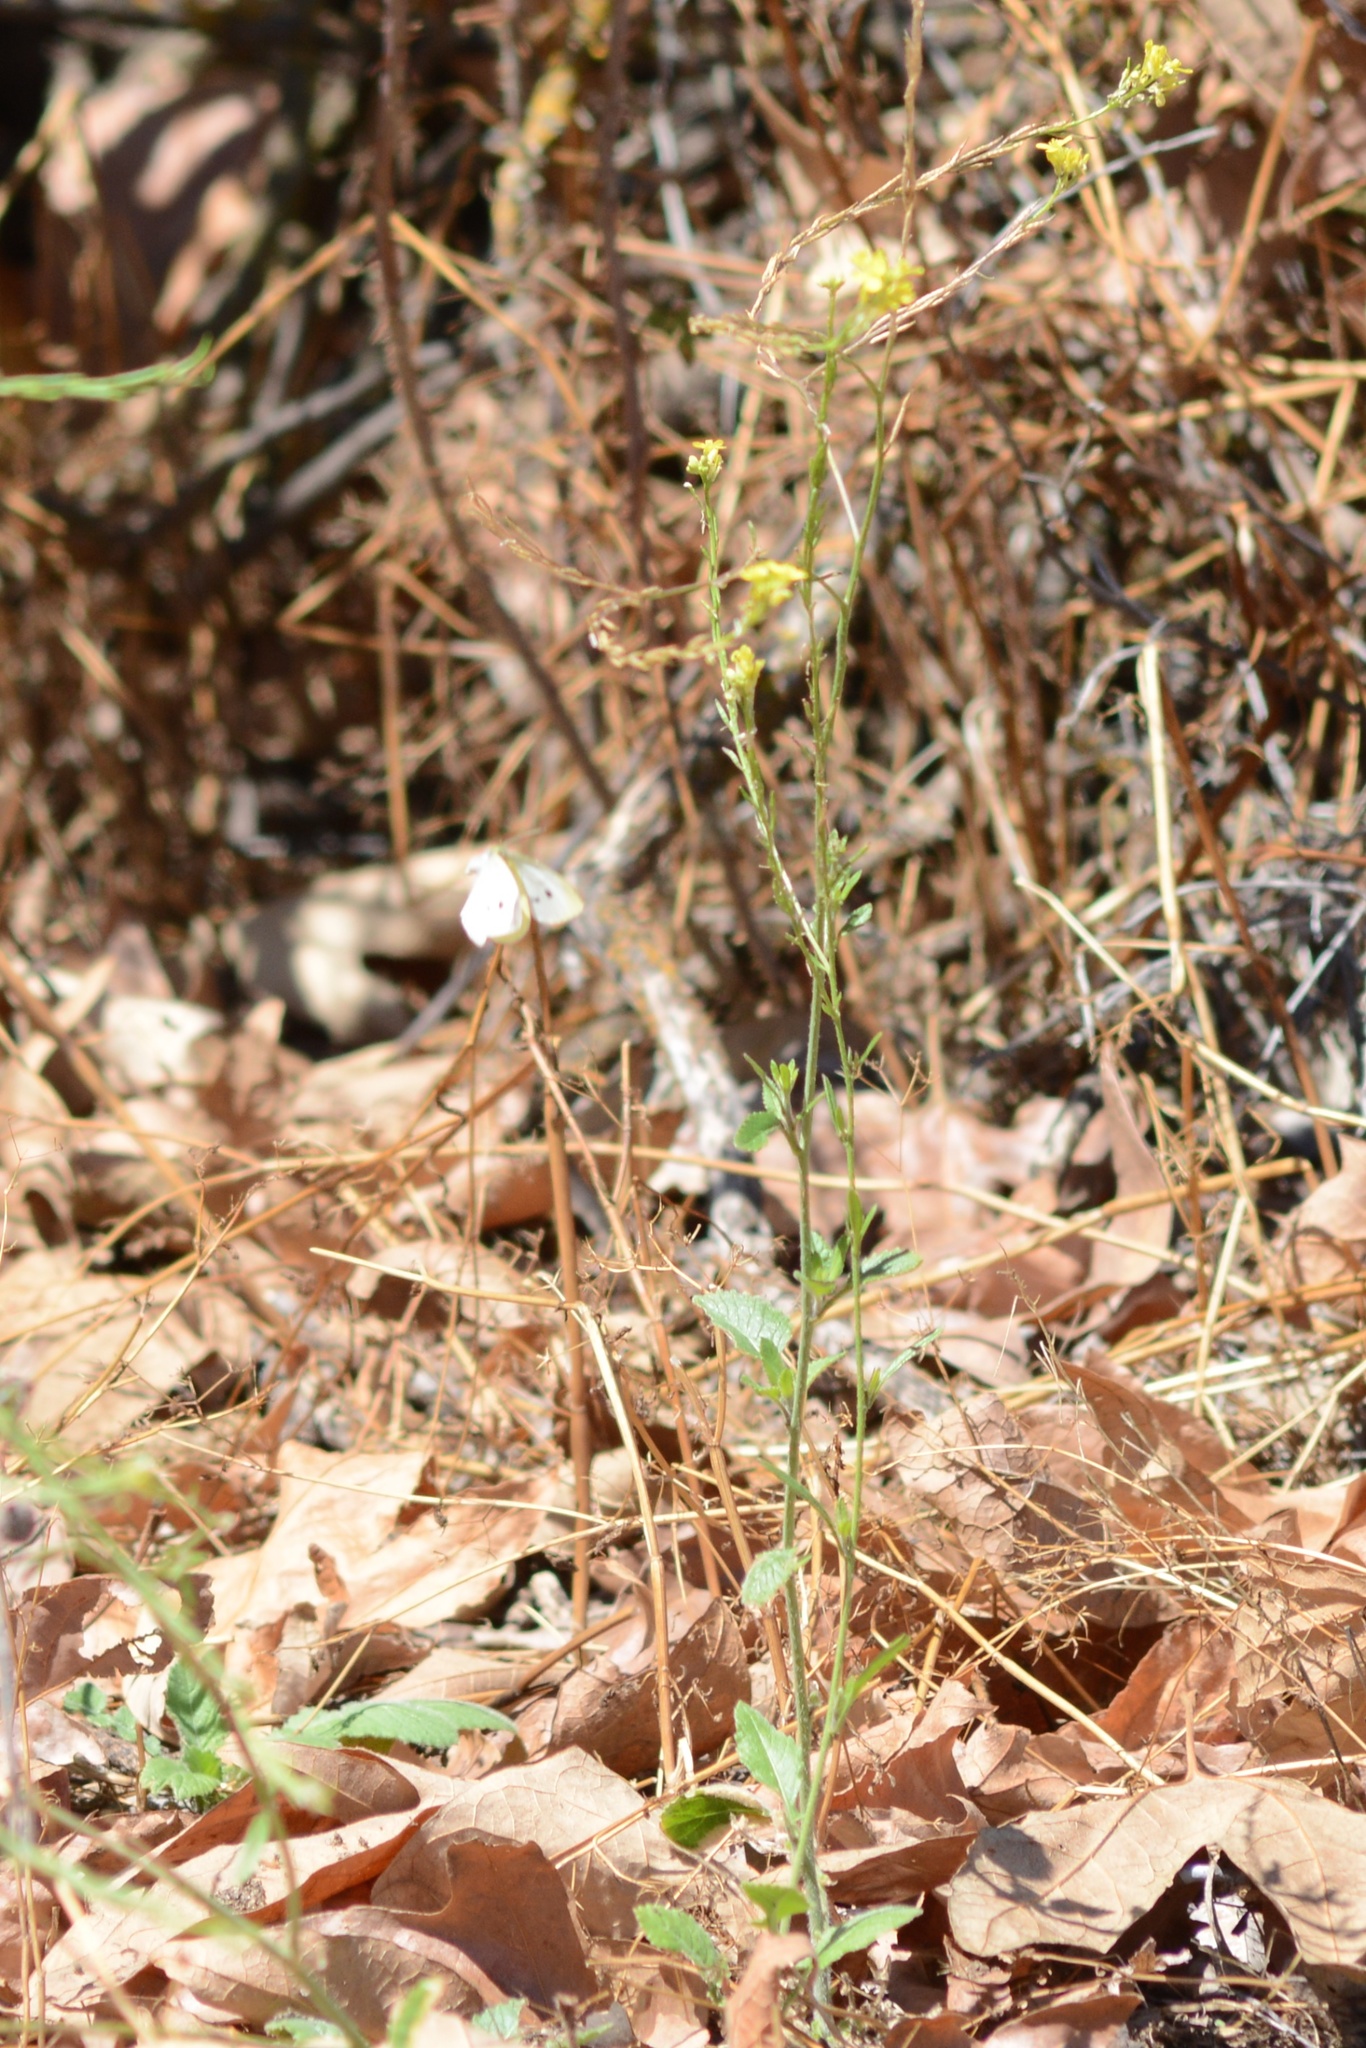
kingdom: Animalia
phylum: Arthropoda
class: Insecta
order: Lepidoptera
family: Pieridae
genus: Pieris
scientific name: Pieris rapae
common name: Small white
